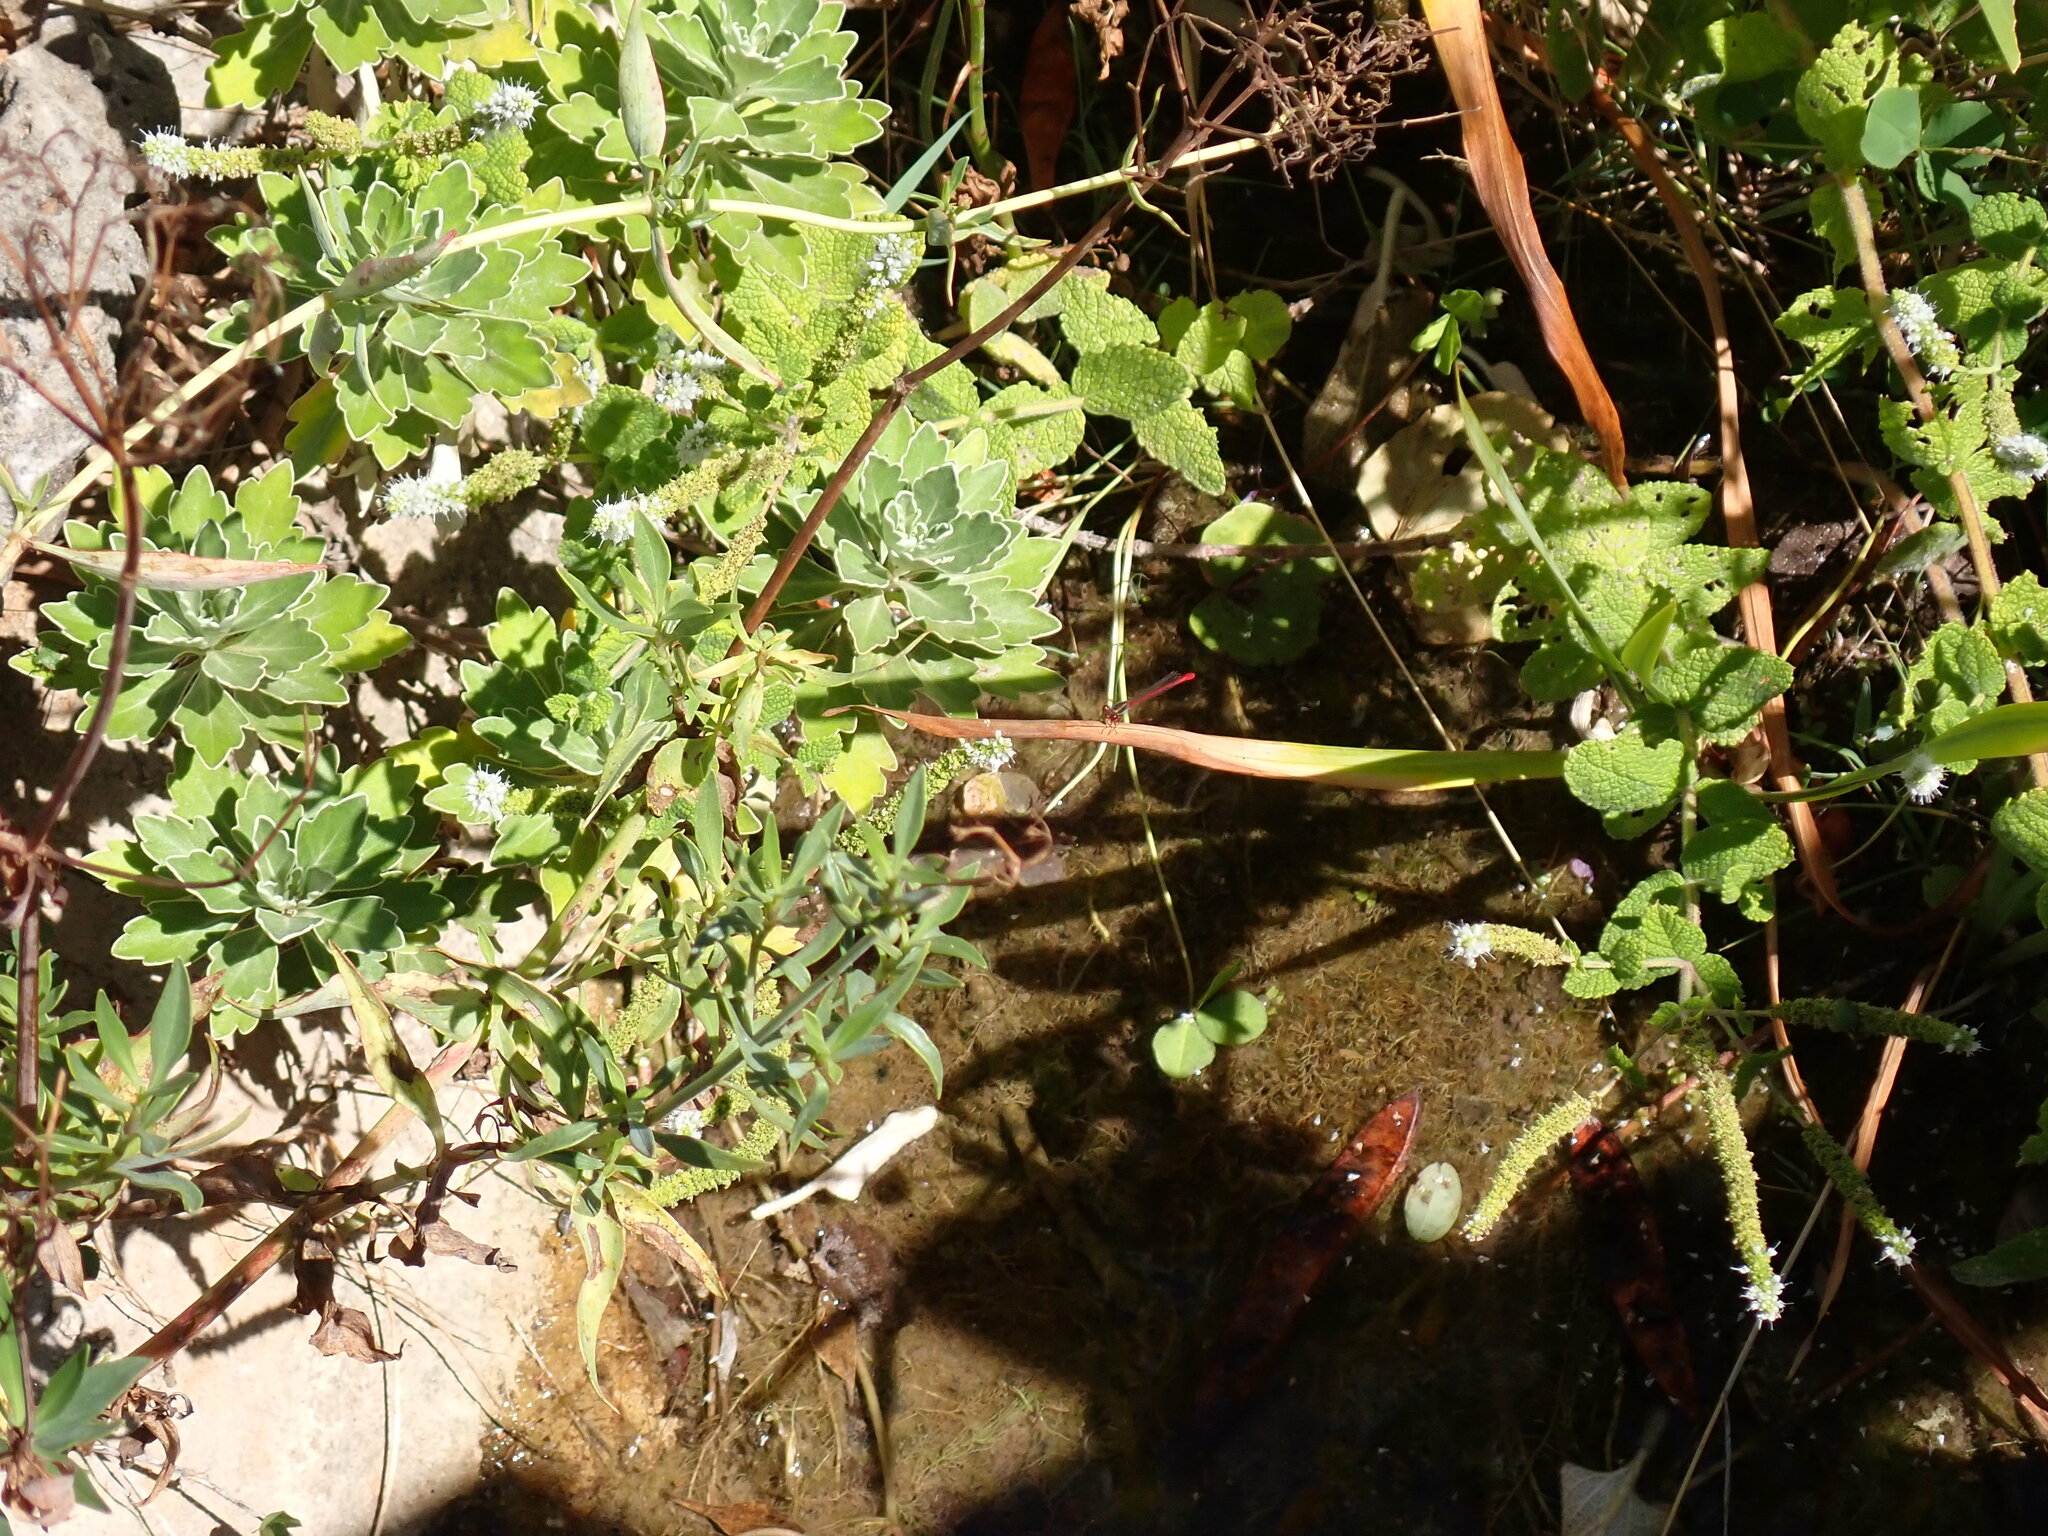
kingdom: Animalia
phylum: Arthropoda
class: Insecta
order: Odonata
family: Coenagrionidae
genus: Ceriagrion
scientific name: Ceriagrion tenellum
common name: Small red damselfly
